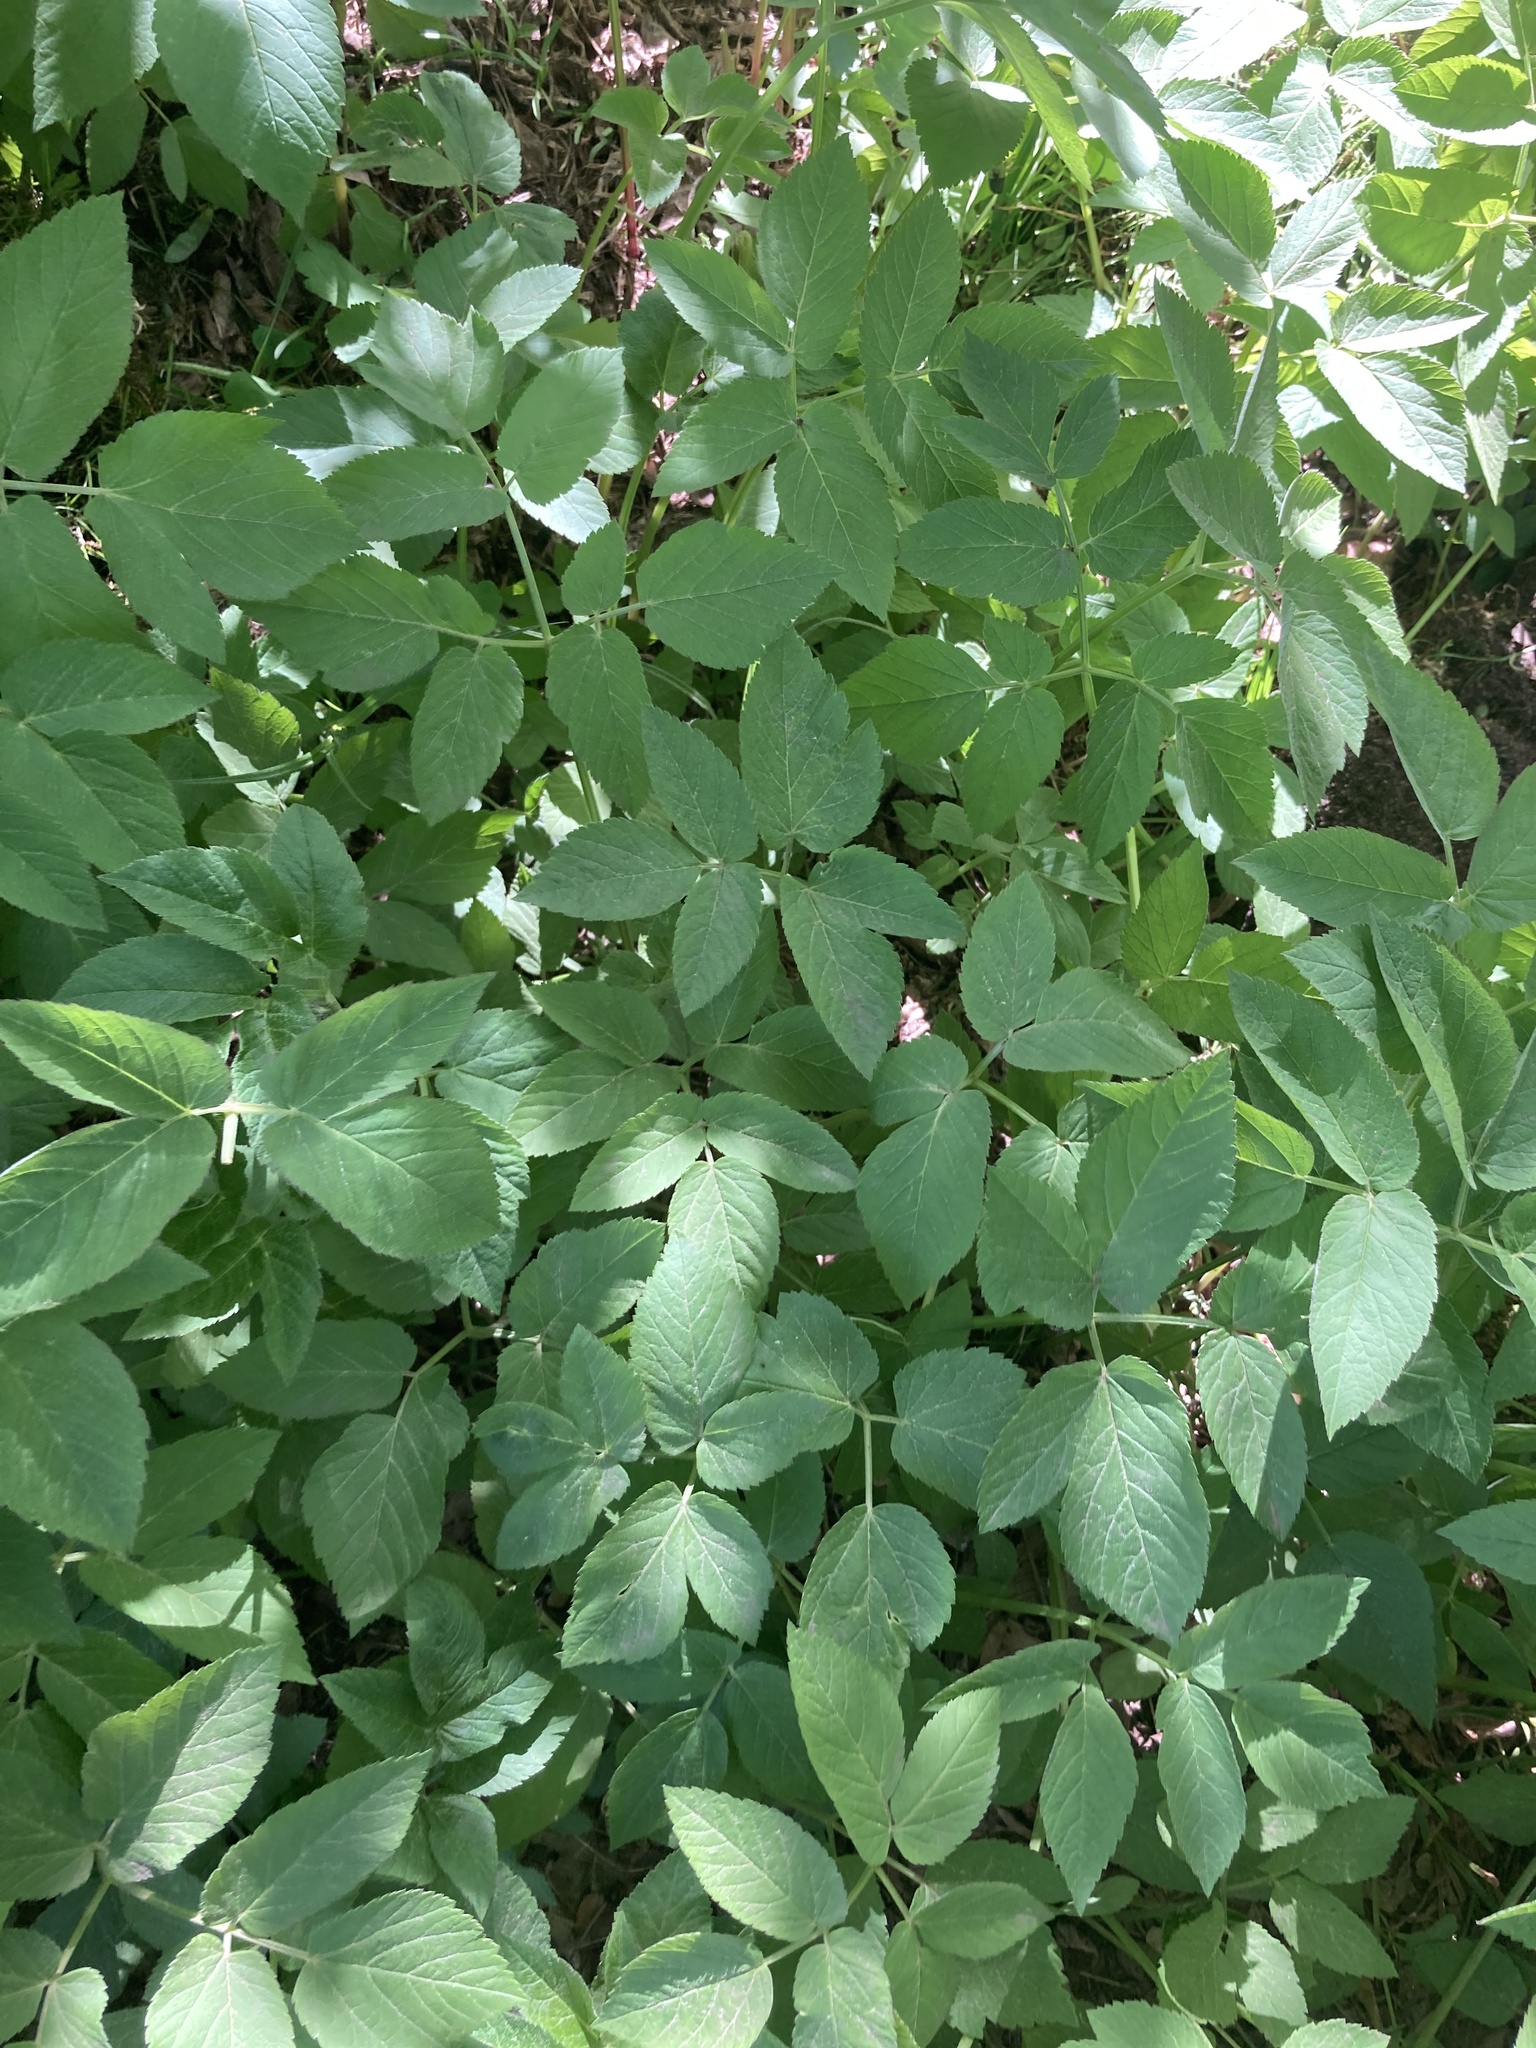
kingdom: Plantae
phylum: Tracheophyta
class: Magnoliopsida
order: Apiales
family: Apiaceae
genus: Aegopodium
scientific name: Aegopodium podagraria
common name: Ground-elder
